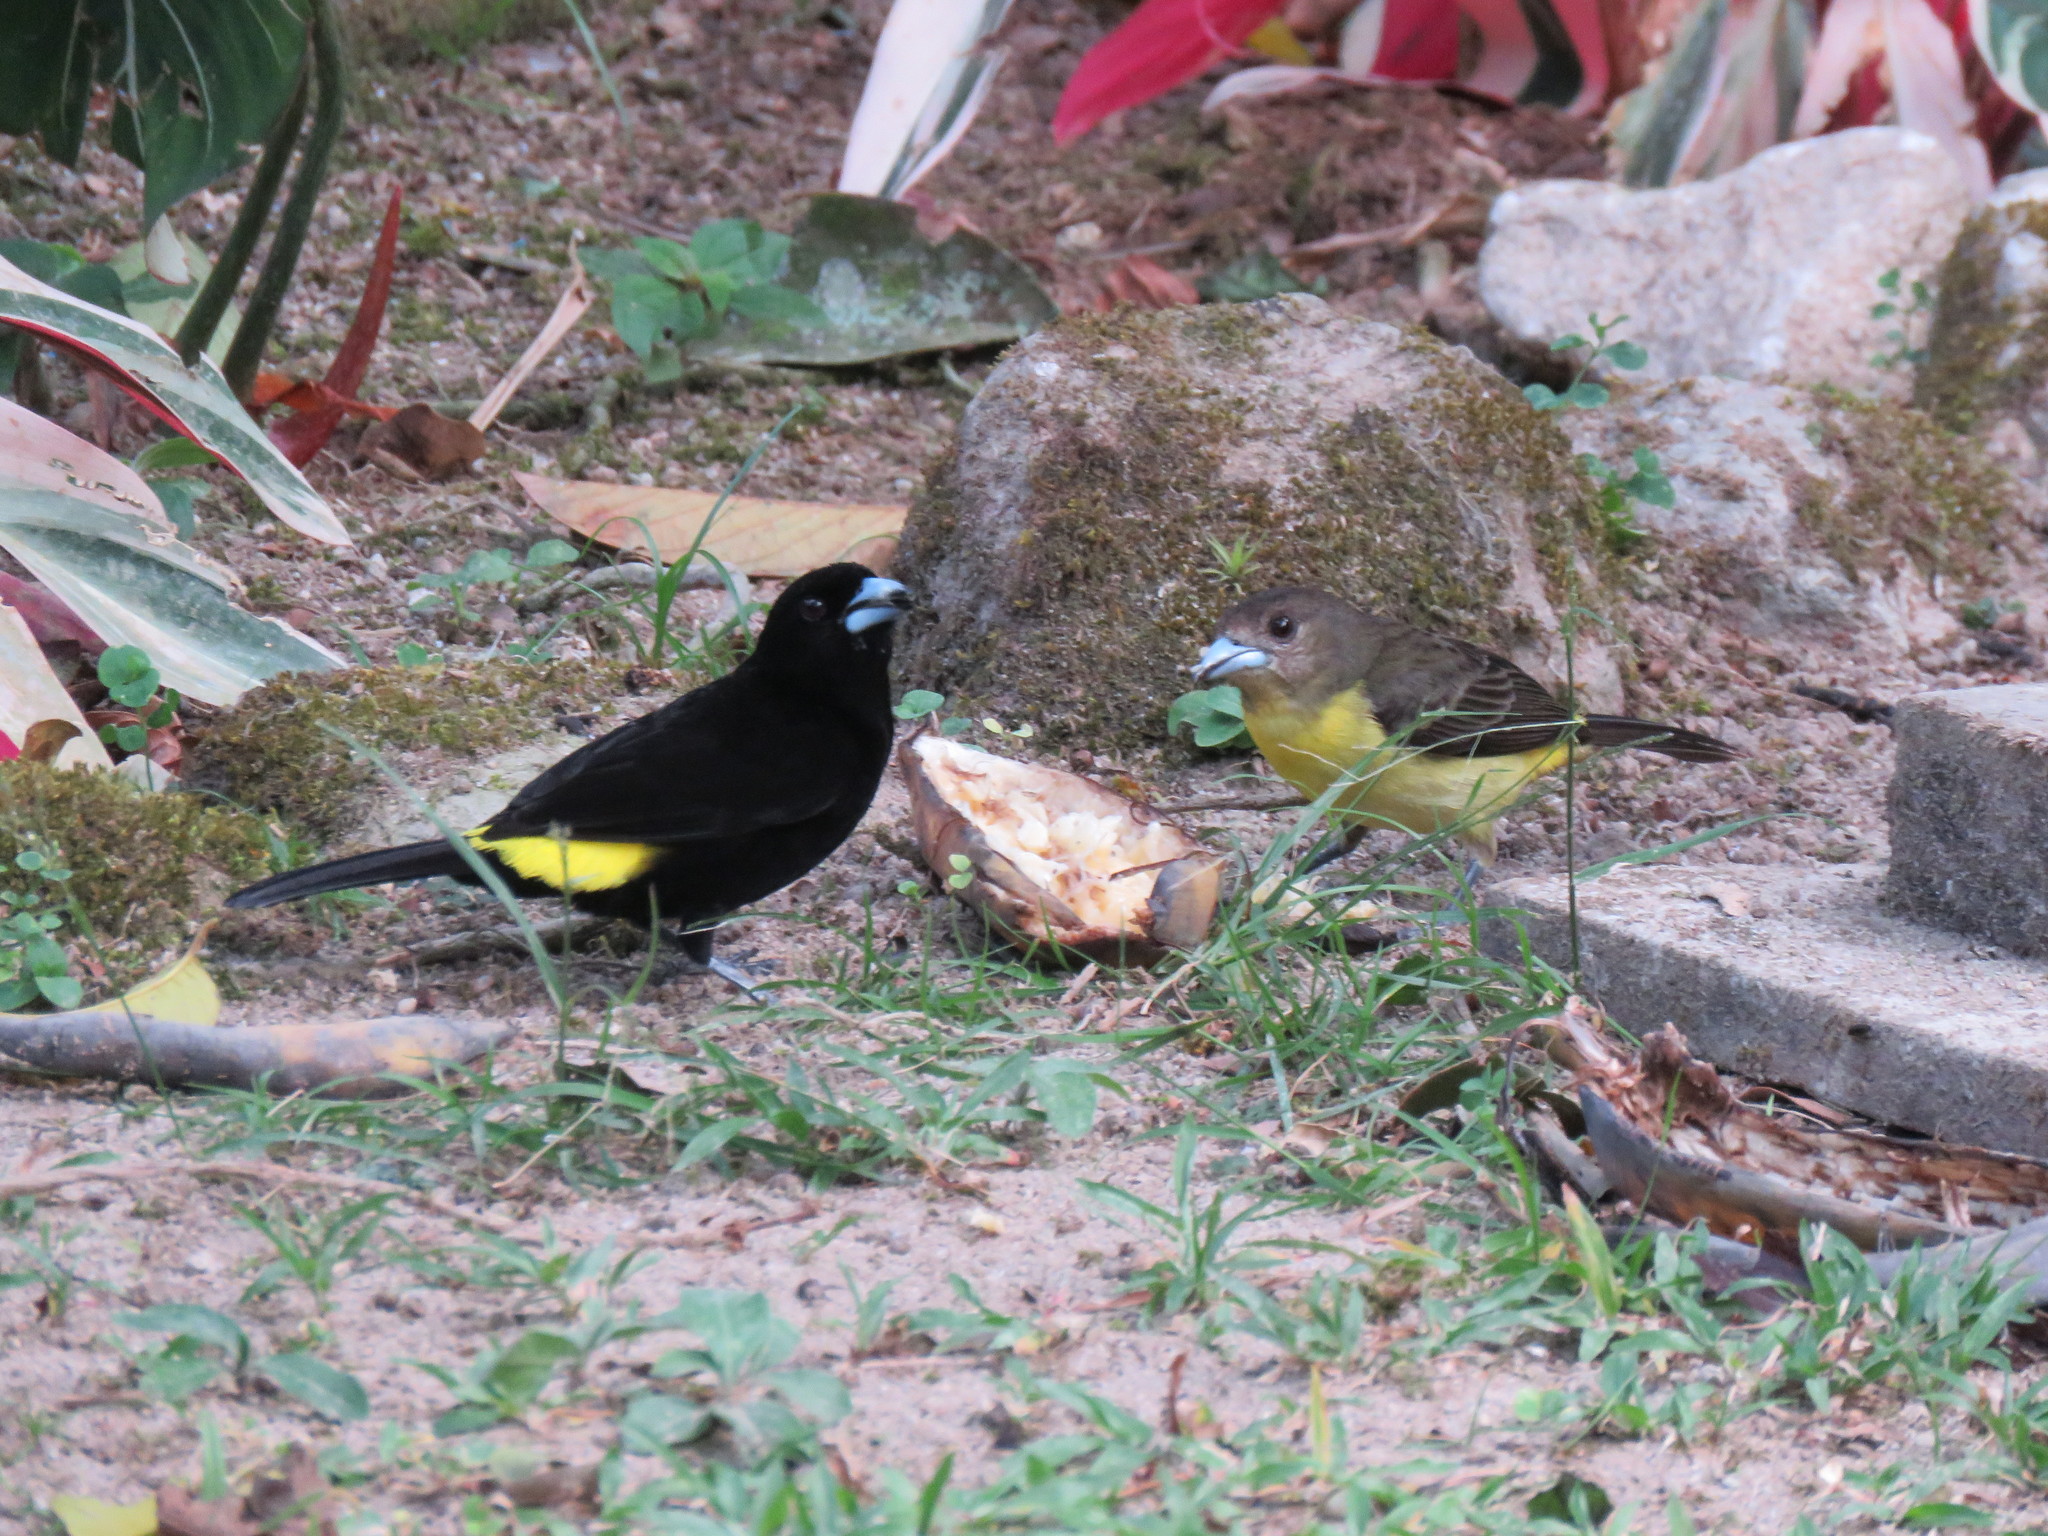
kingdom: Animalia
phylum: Chordata
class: Aves
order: Passeriformes
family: Thraupidae
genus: Ramphocelus
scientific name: Ramphocelus flammigerus
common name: Flame-rumped tanager
